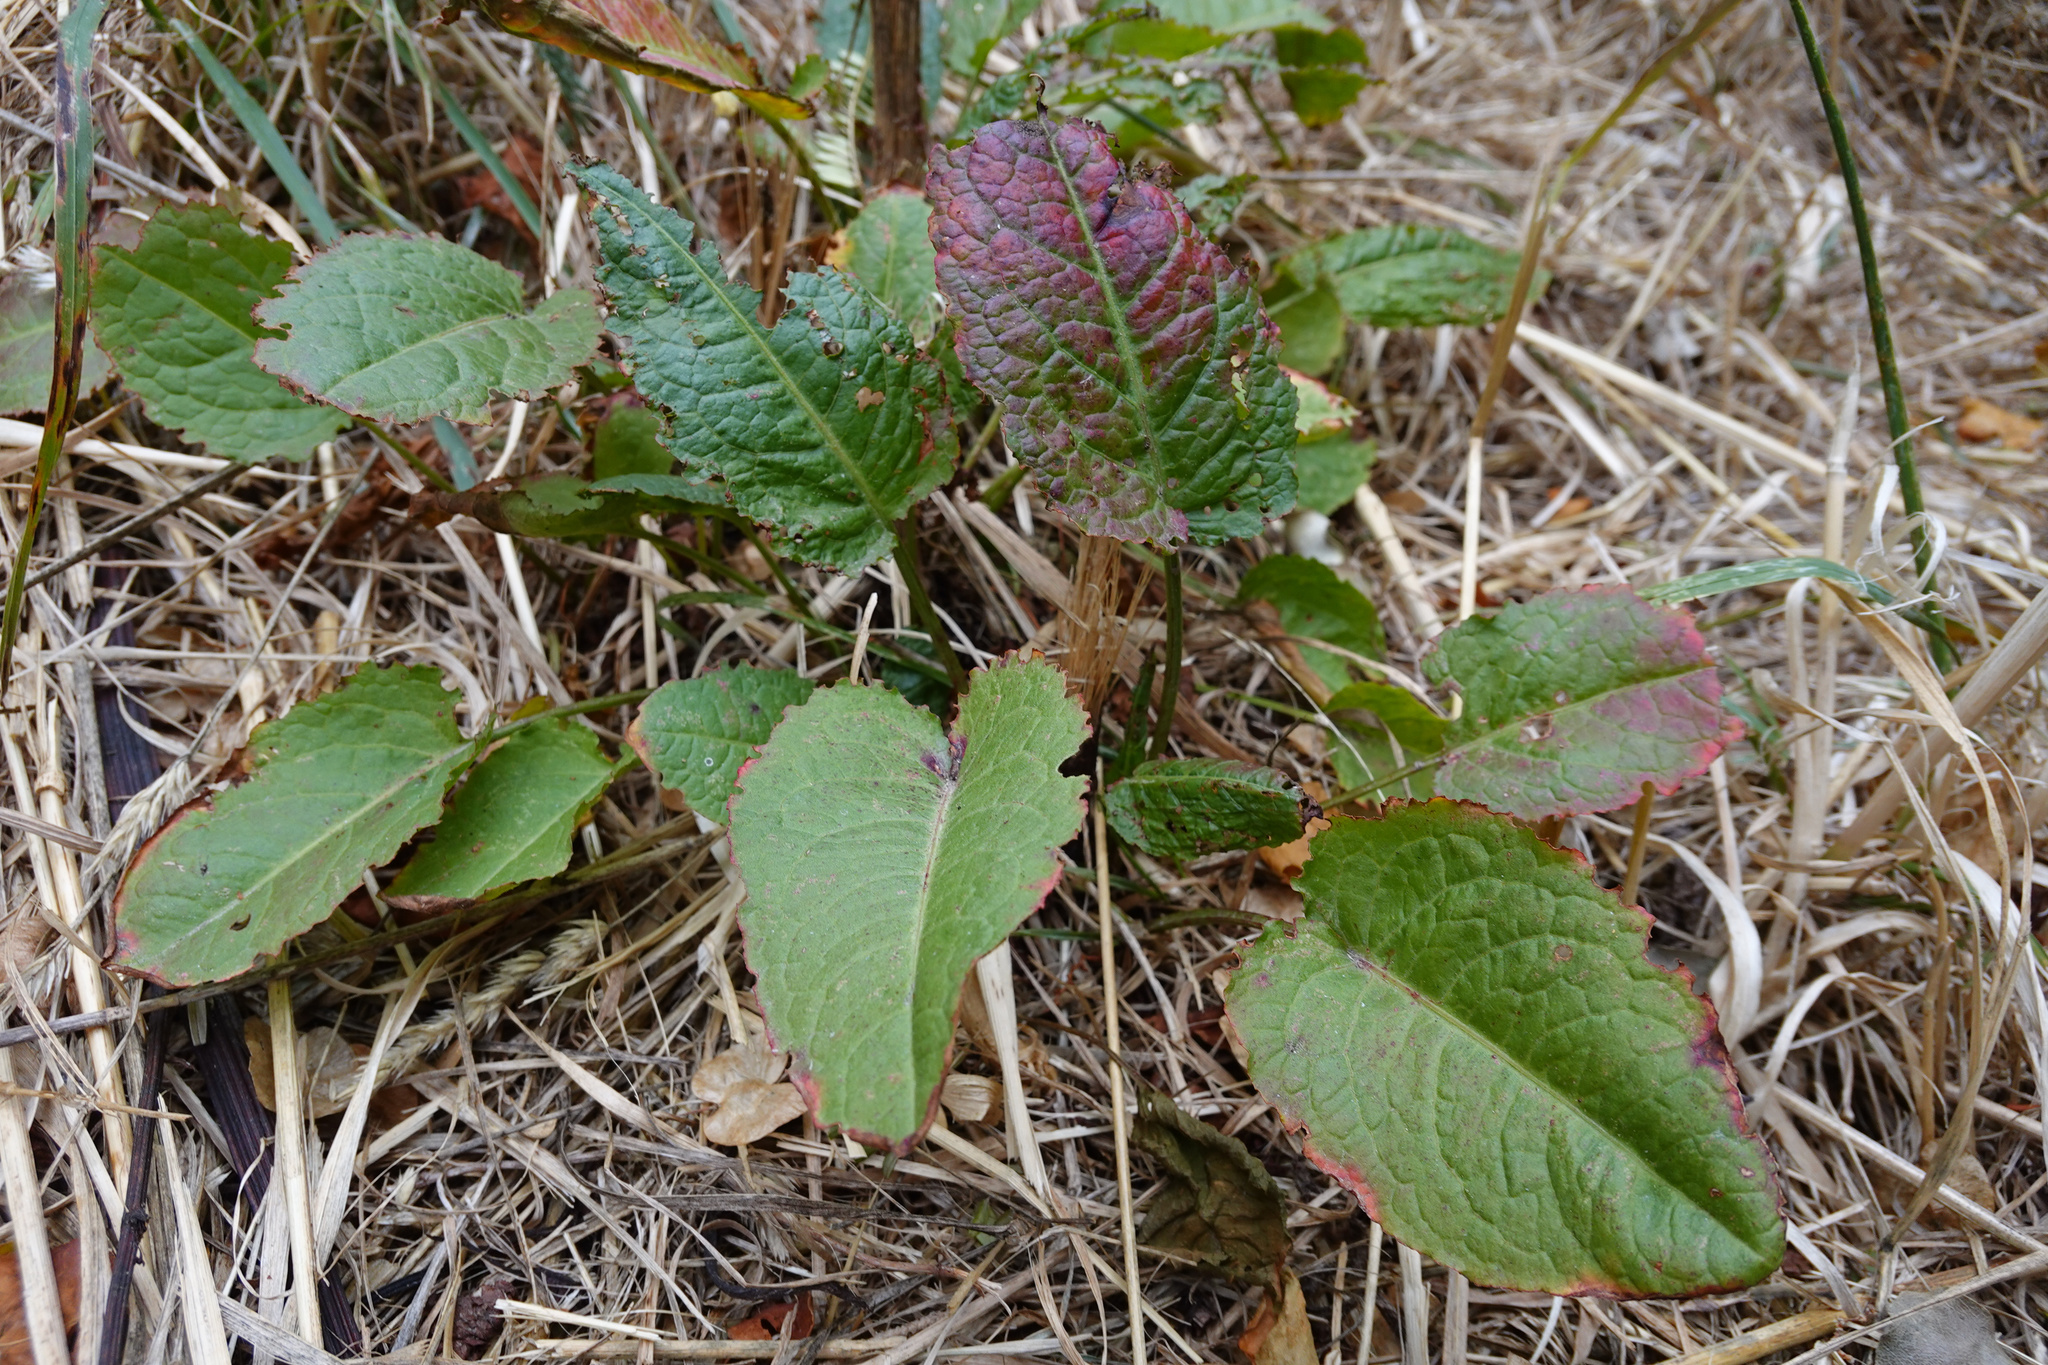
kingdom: Plantae
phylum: Tracheophyta
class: Magnoliopsida
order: Caryophyllales
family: Polygonaceae
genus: Rumex
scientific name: Rumex obtusifolius
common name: Bitter dock
